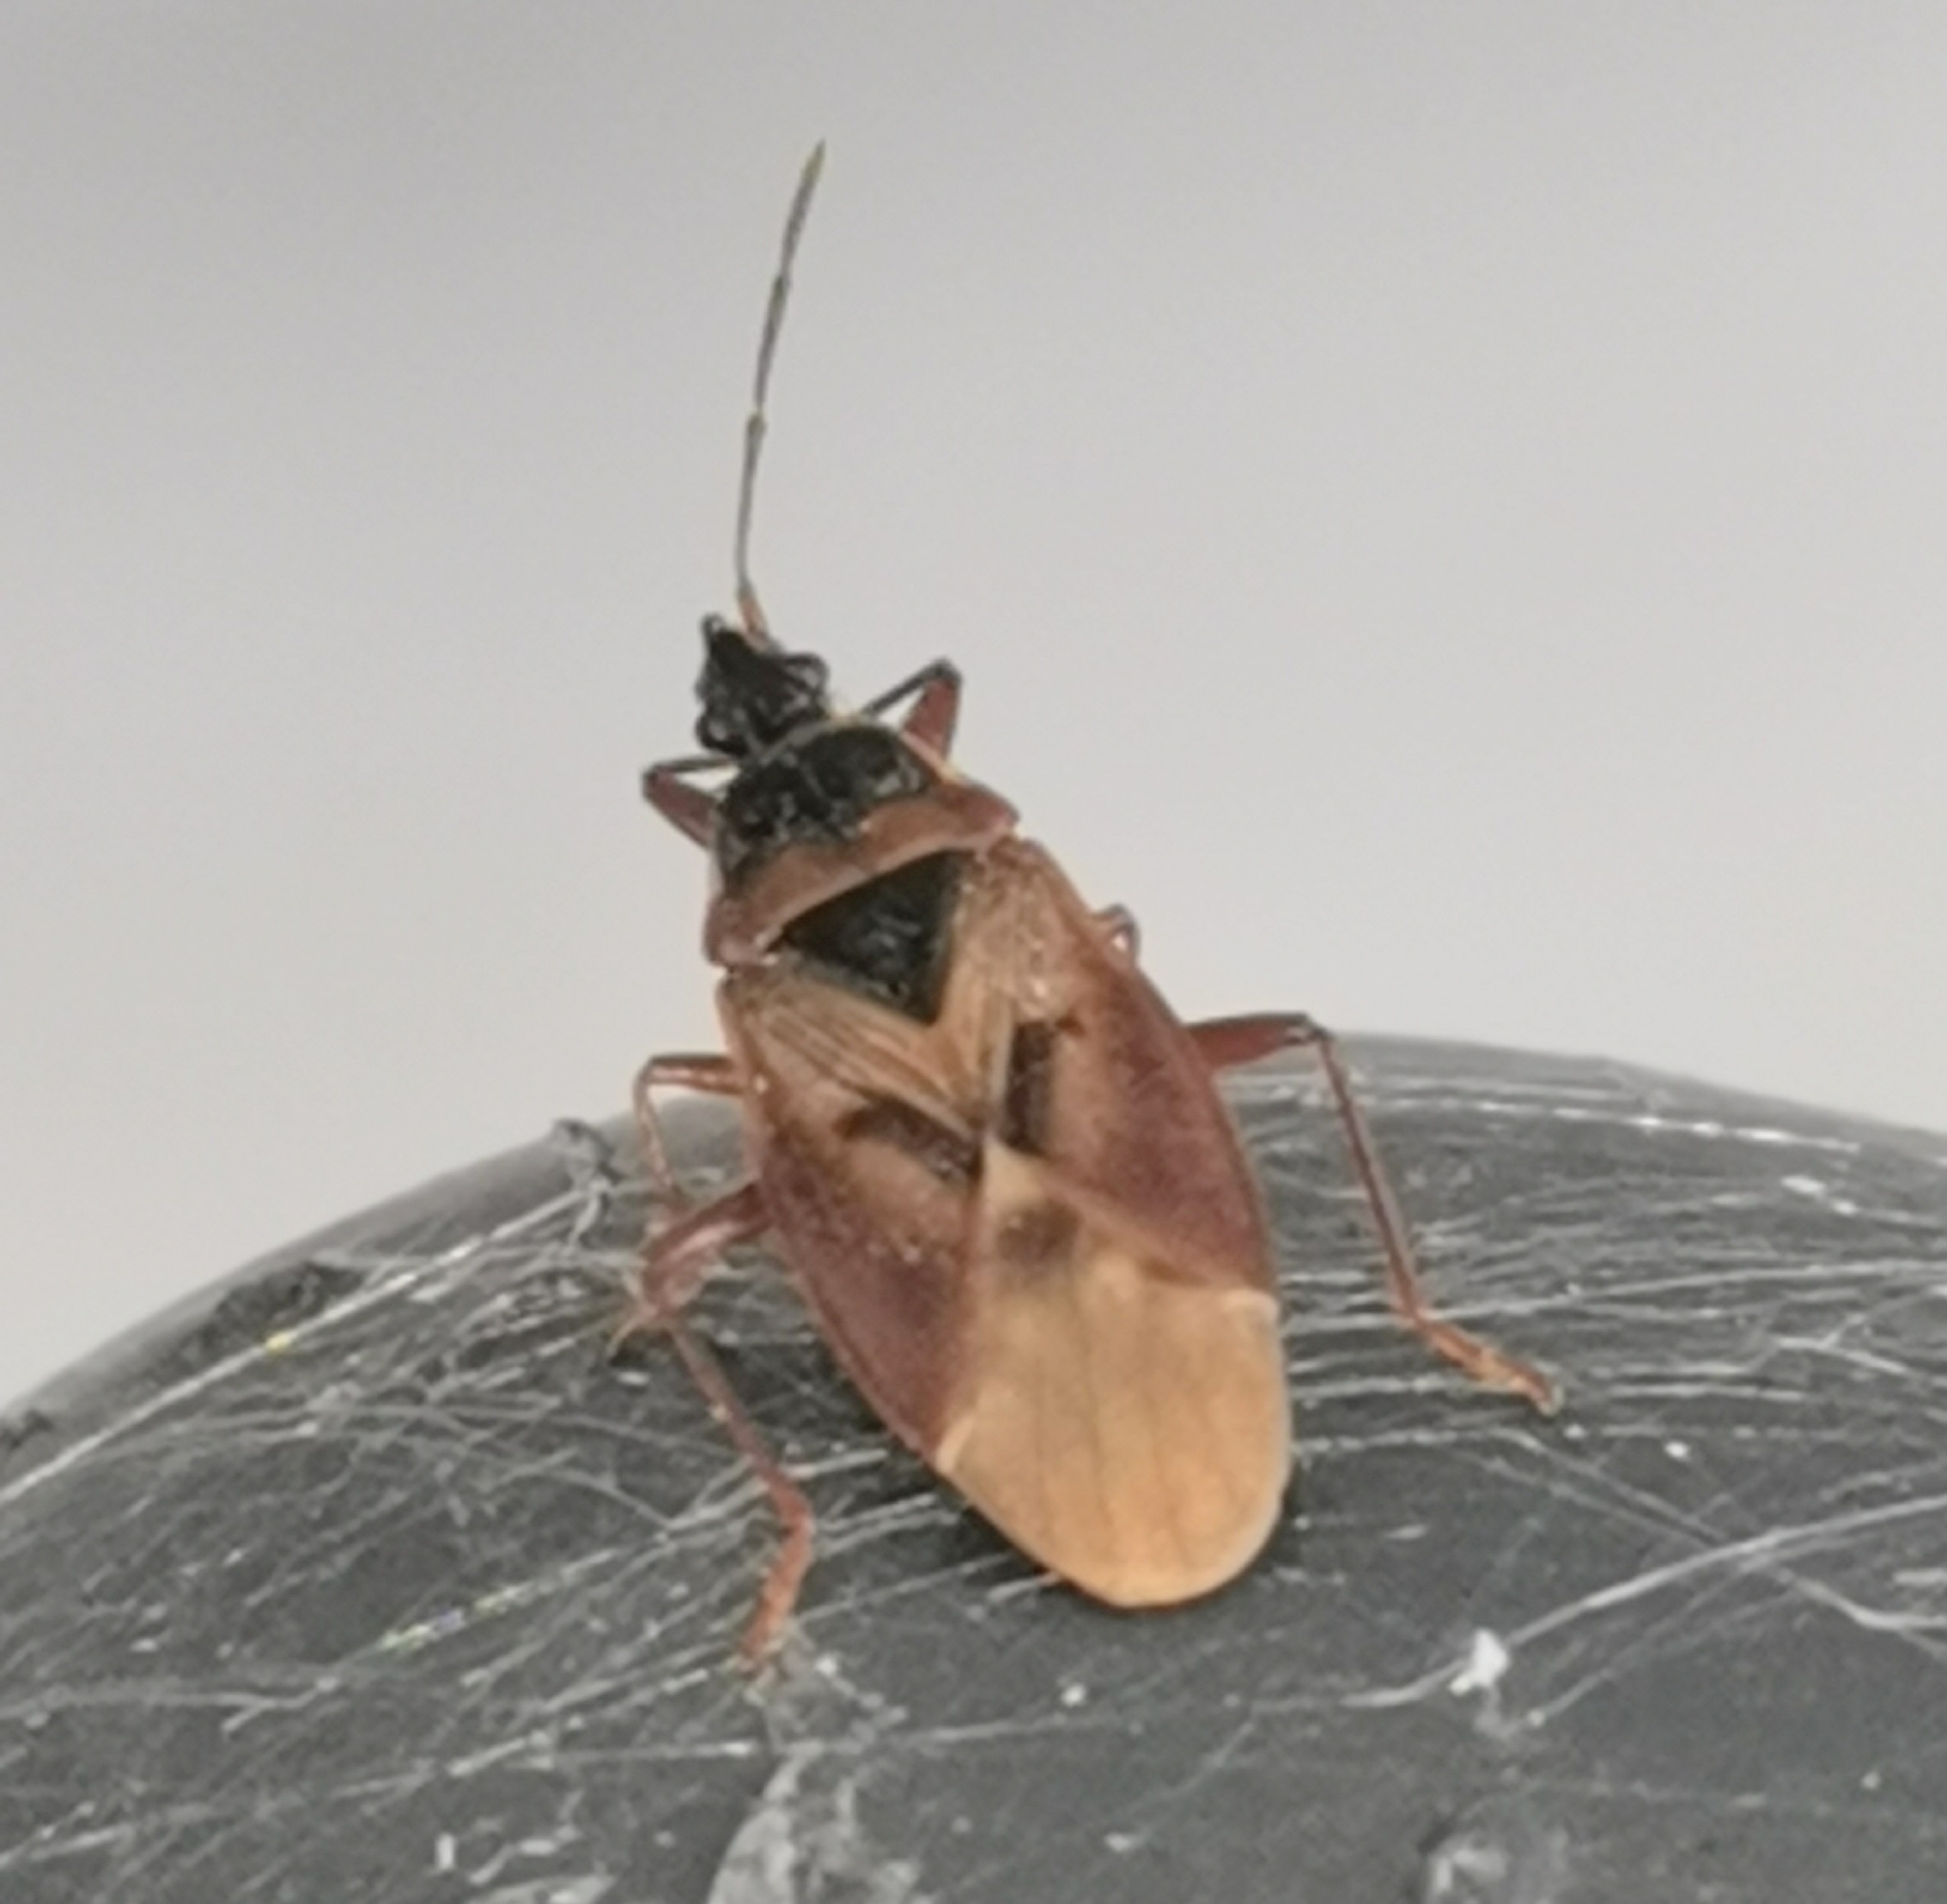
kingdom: Animalia
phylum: Arthropoda
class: Insecta
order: Hemiptera
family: Rhyparochromidae
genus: Gastrodes
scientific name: Gastrodes abietum
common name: Spruce cone bug
